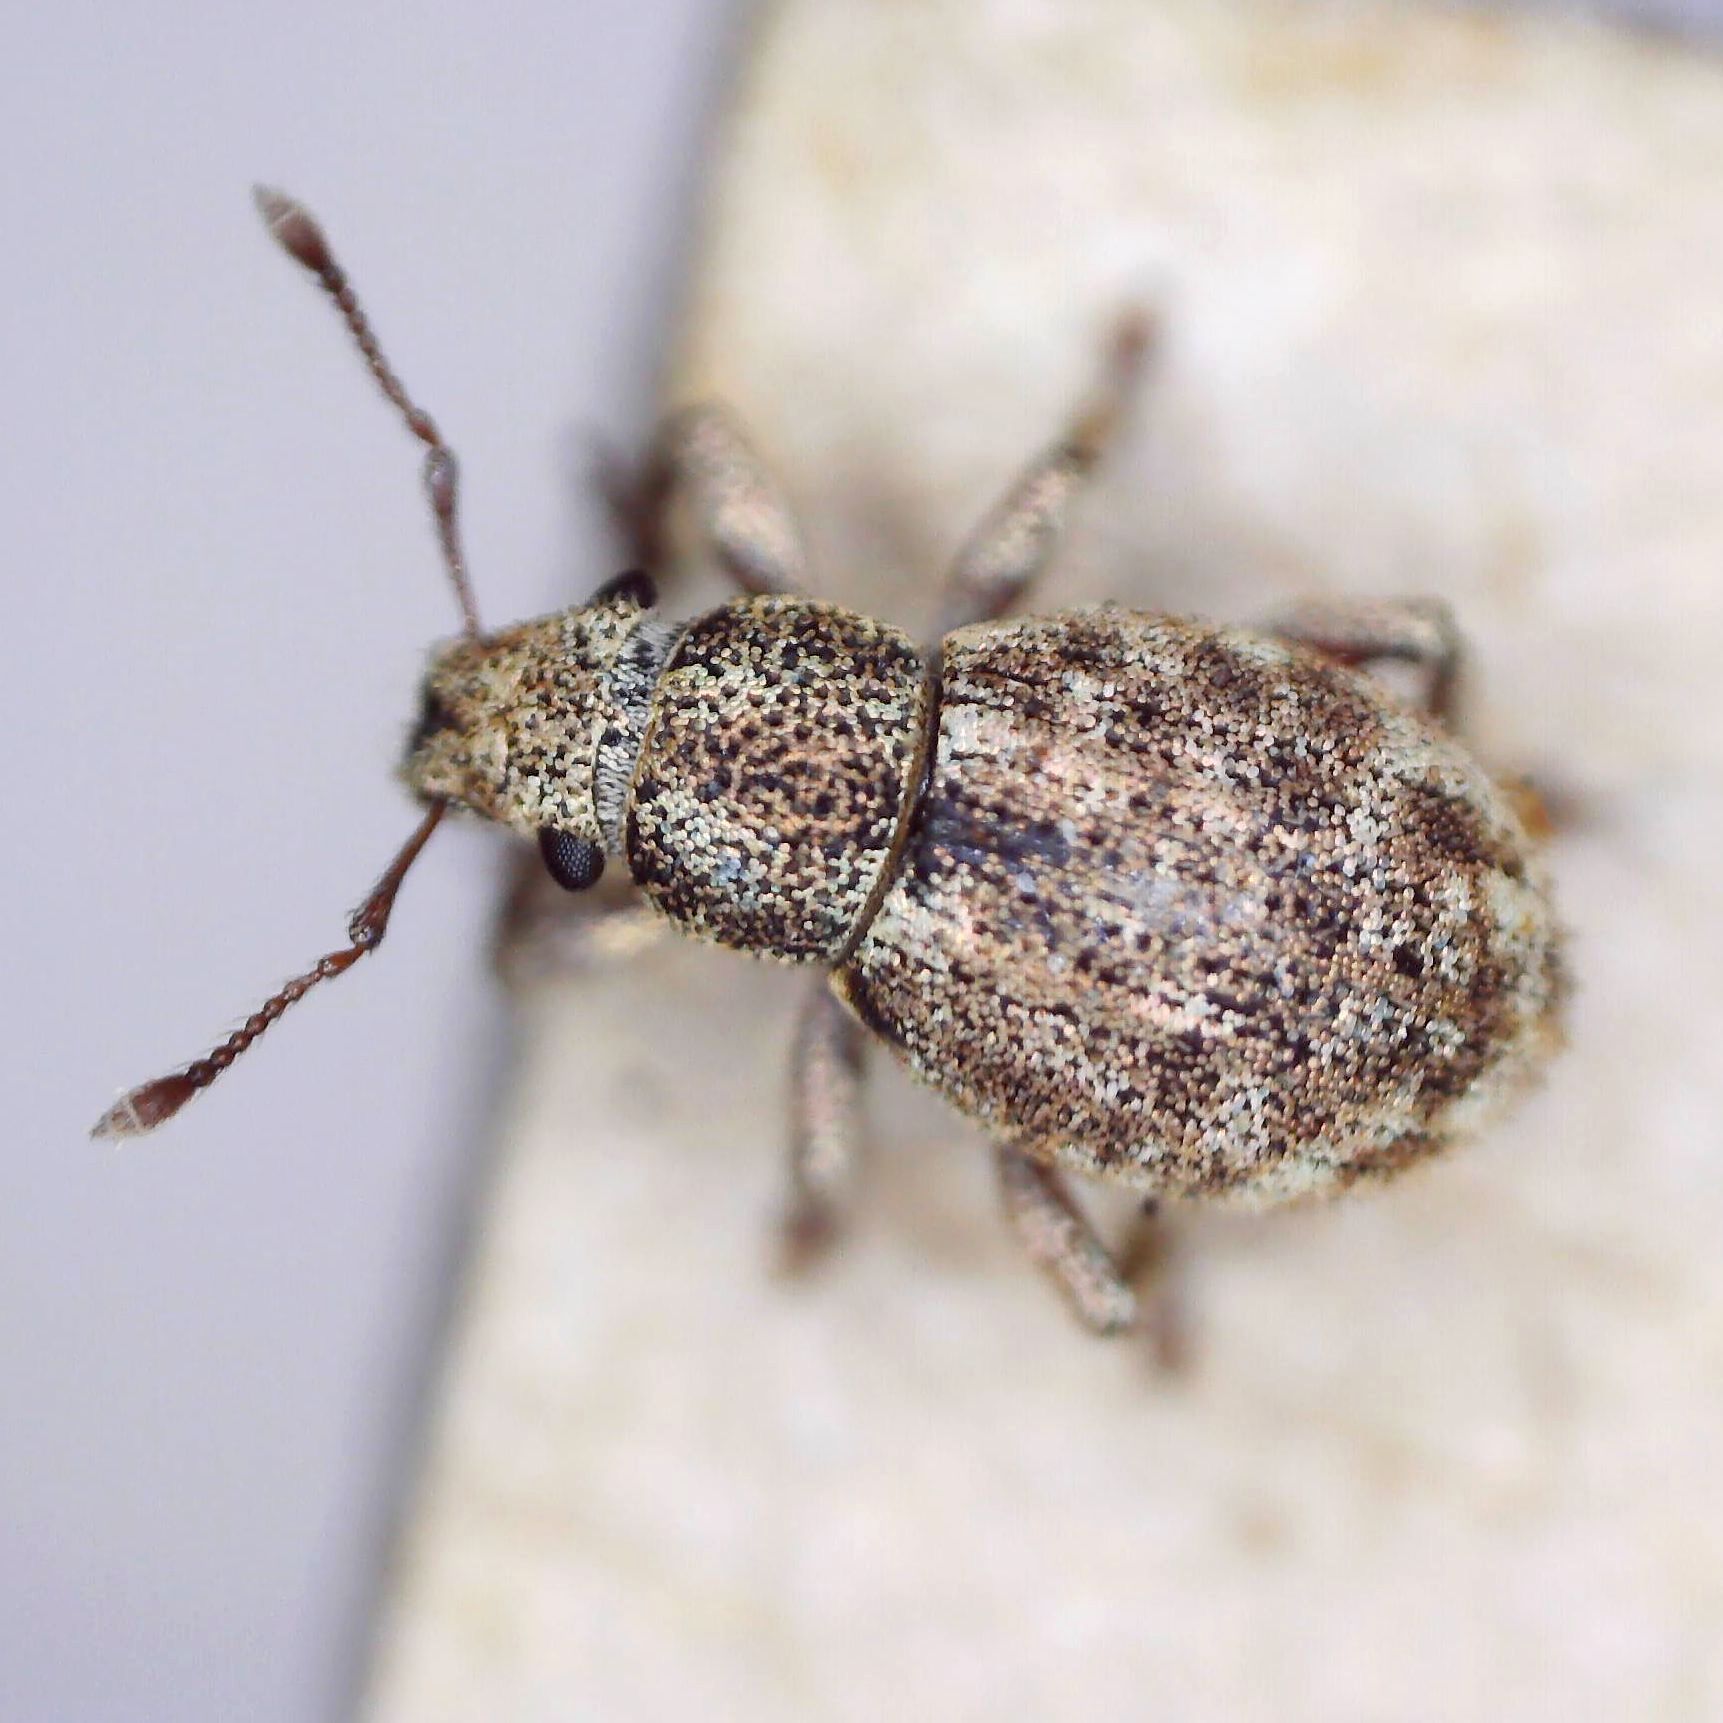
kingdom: Animalia
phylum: Arthropoda
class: Insecta
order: Coleoptera
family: Curculionidae
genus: Strophosoma
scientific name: Strophosoma capitatum
